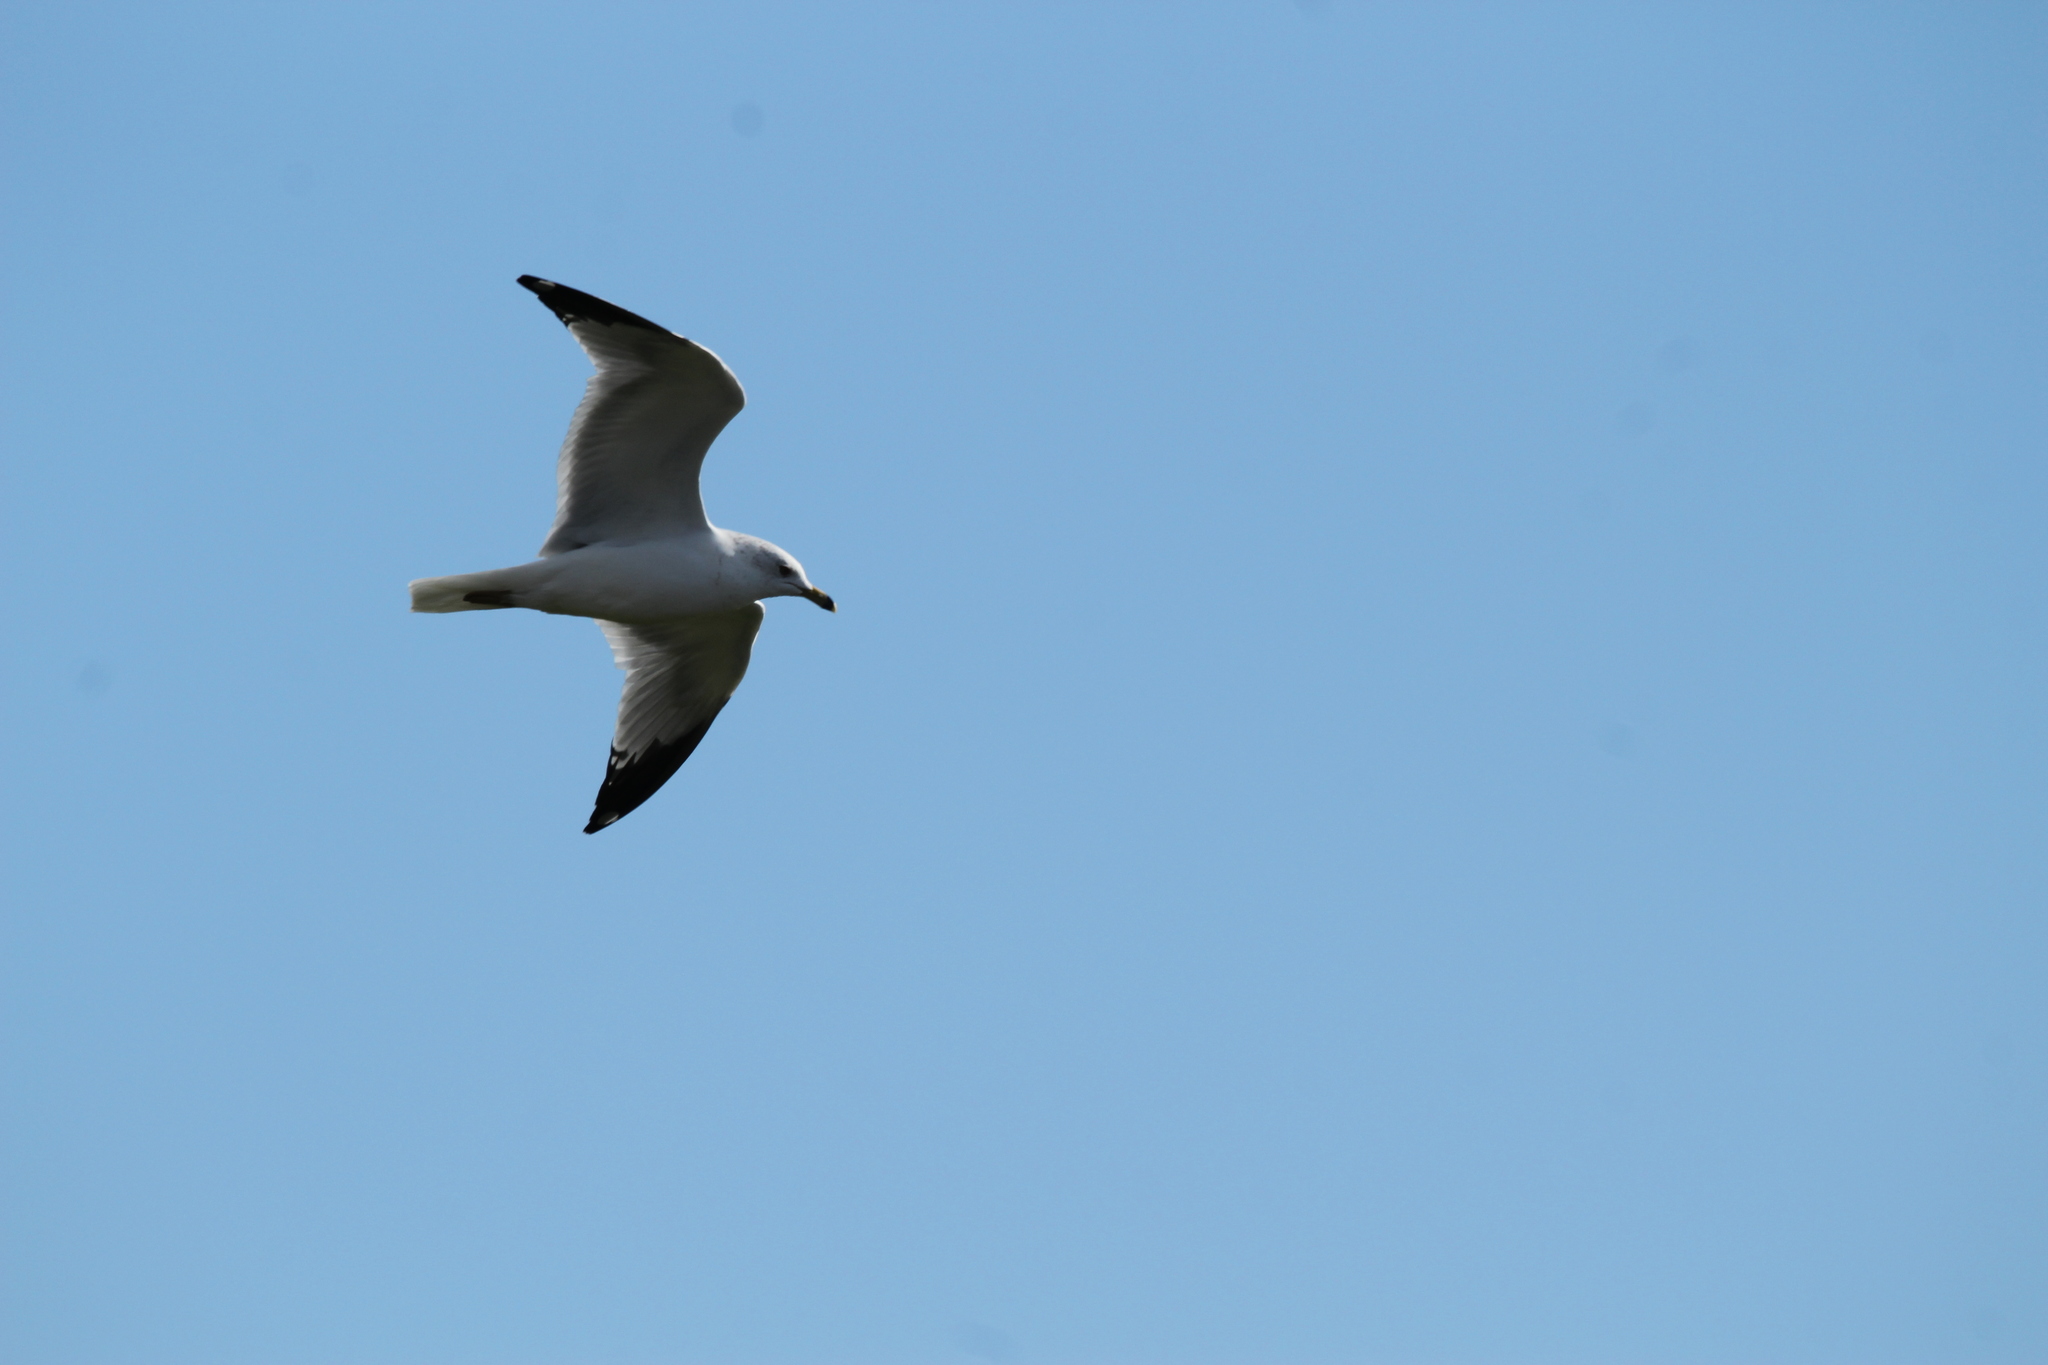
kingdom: Animalia
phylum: Chordata
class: Aves
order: Charadriiformes
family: Laridae
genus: Larus
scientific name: Larus delawarensis
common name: Ring-billed gull
